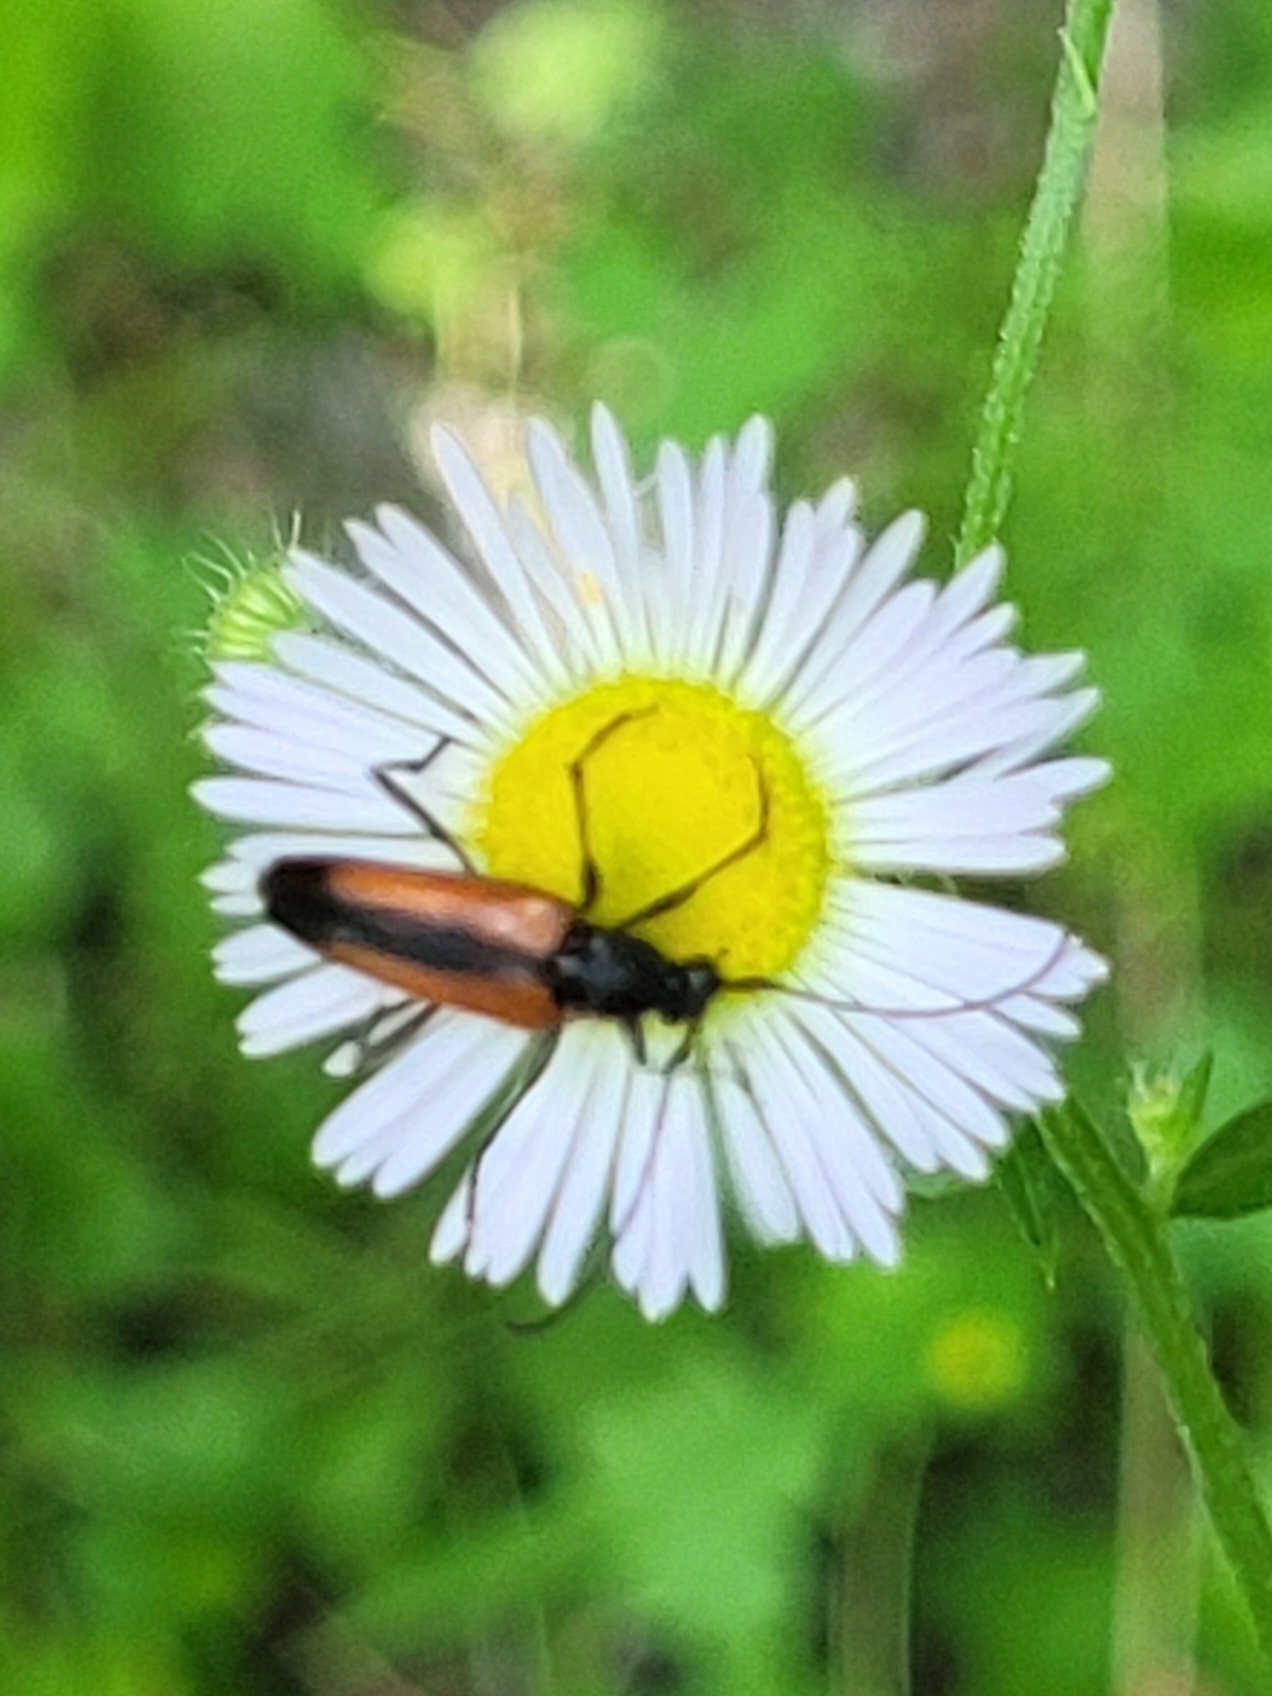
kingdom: Animalia
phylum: Arthropoda
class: Insecta
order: Coleoptera
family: Cerambycidae
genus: Stenurella
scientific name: Stenurella melanura
